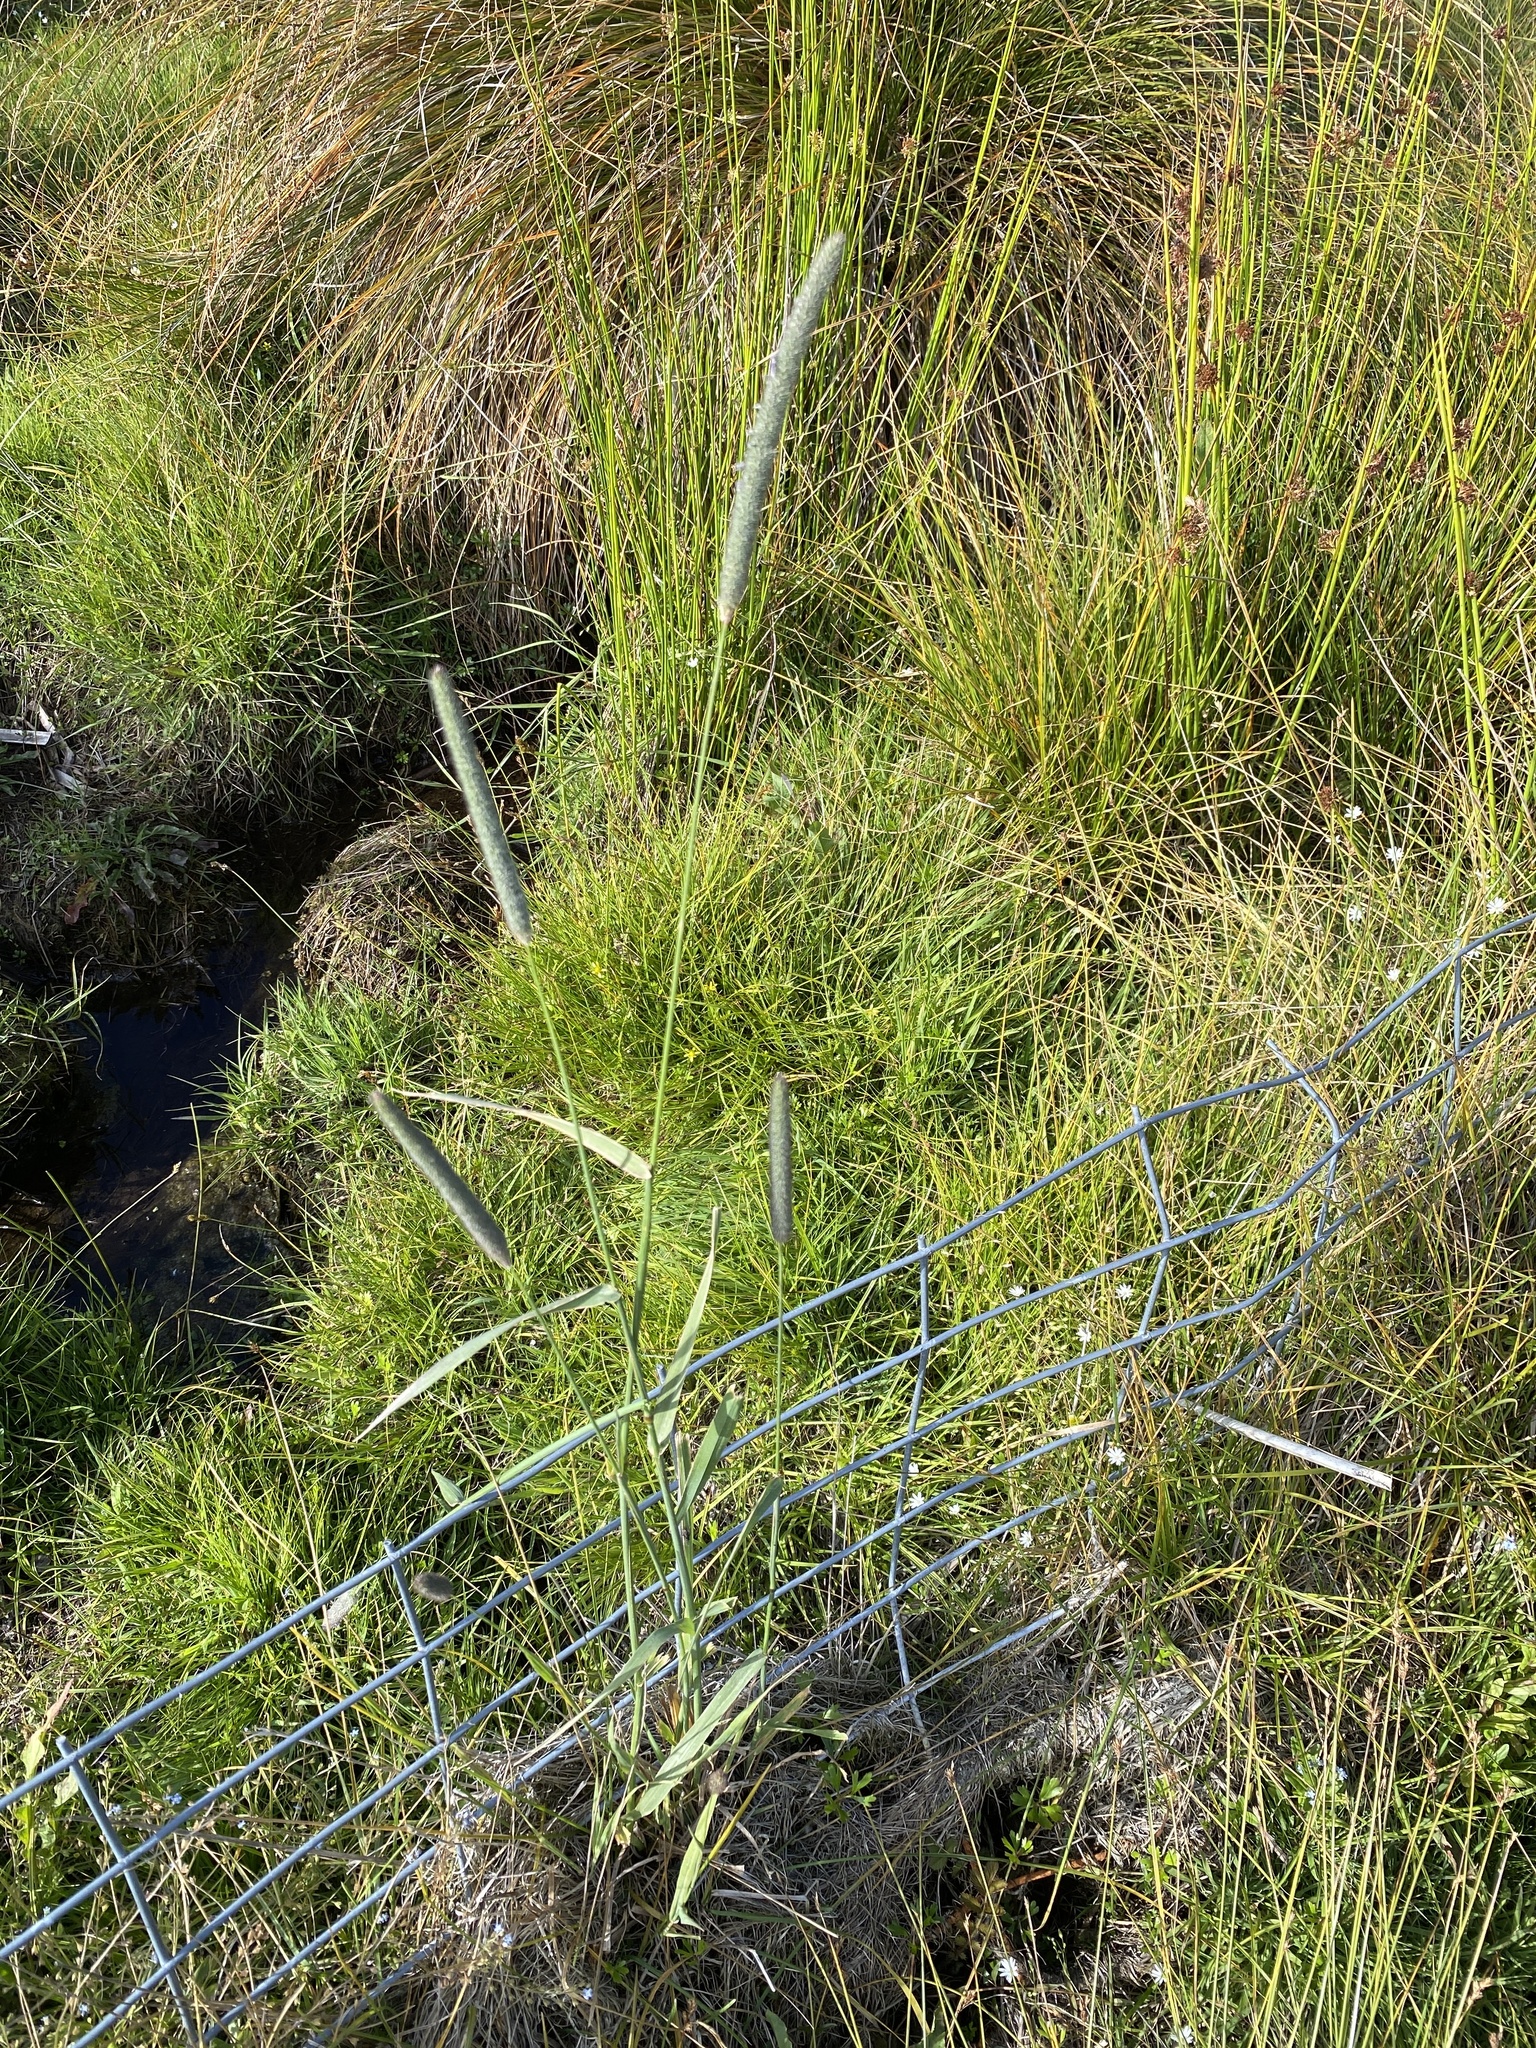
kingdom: Plantae
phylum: Tracheophyta
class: Liliopsida
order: Poales
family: Poaceae
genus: Phleum
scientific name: Phleum pratense
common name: Timothy grass
